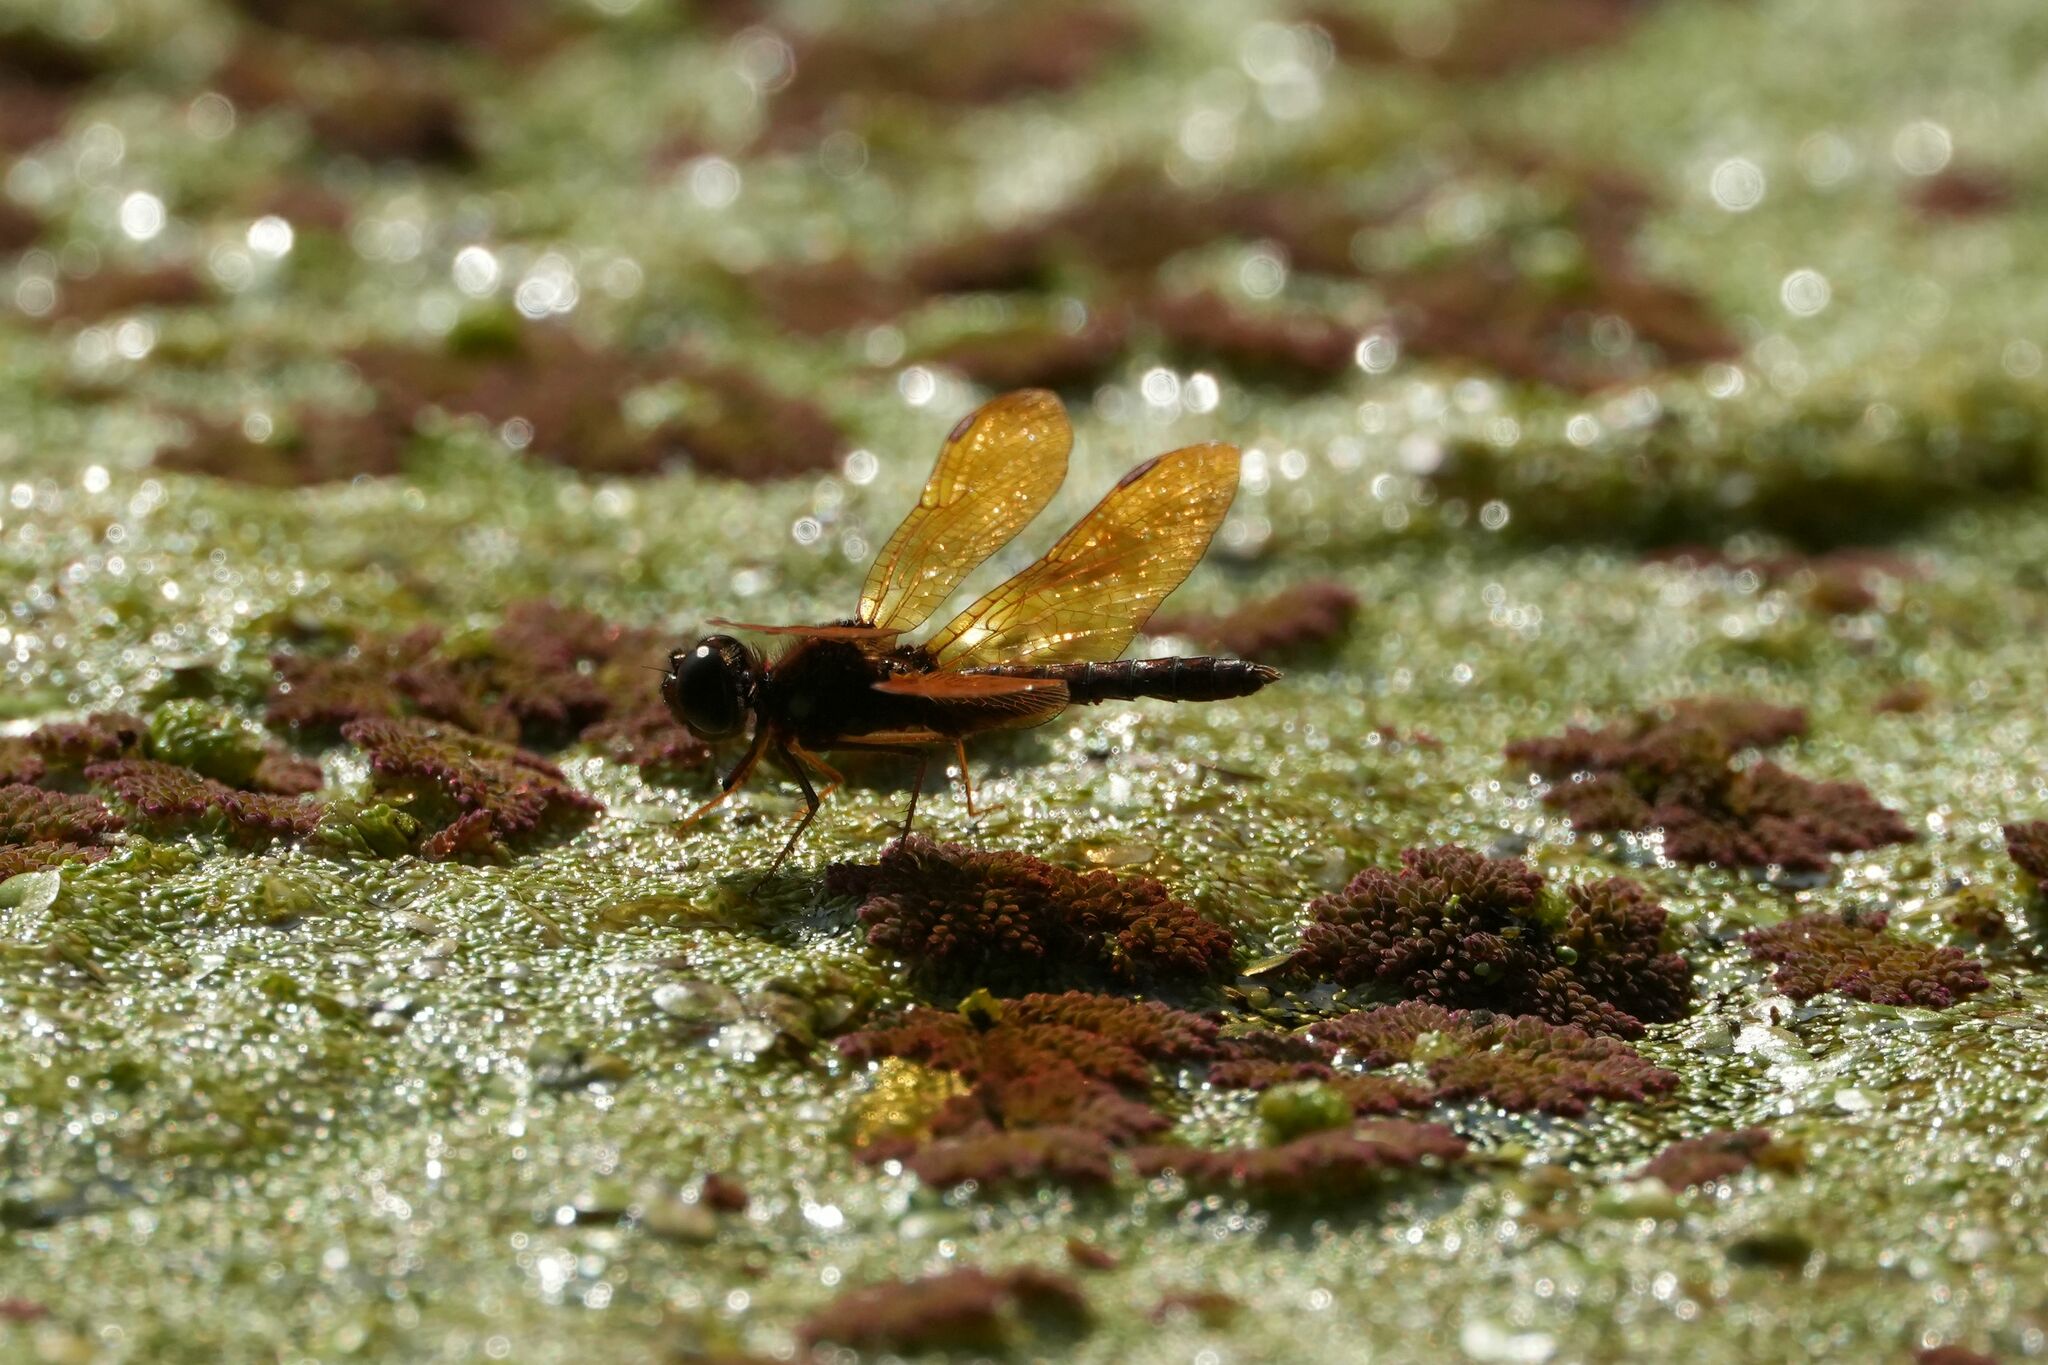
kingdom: Animalia
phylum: Arthropoda
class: Insecta
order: Odonata
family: Libellulidae
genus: Perithemis
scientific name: Perithemis tenera
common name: Eastern amberwing
